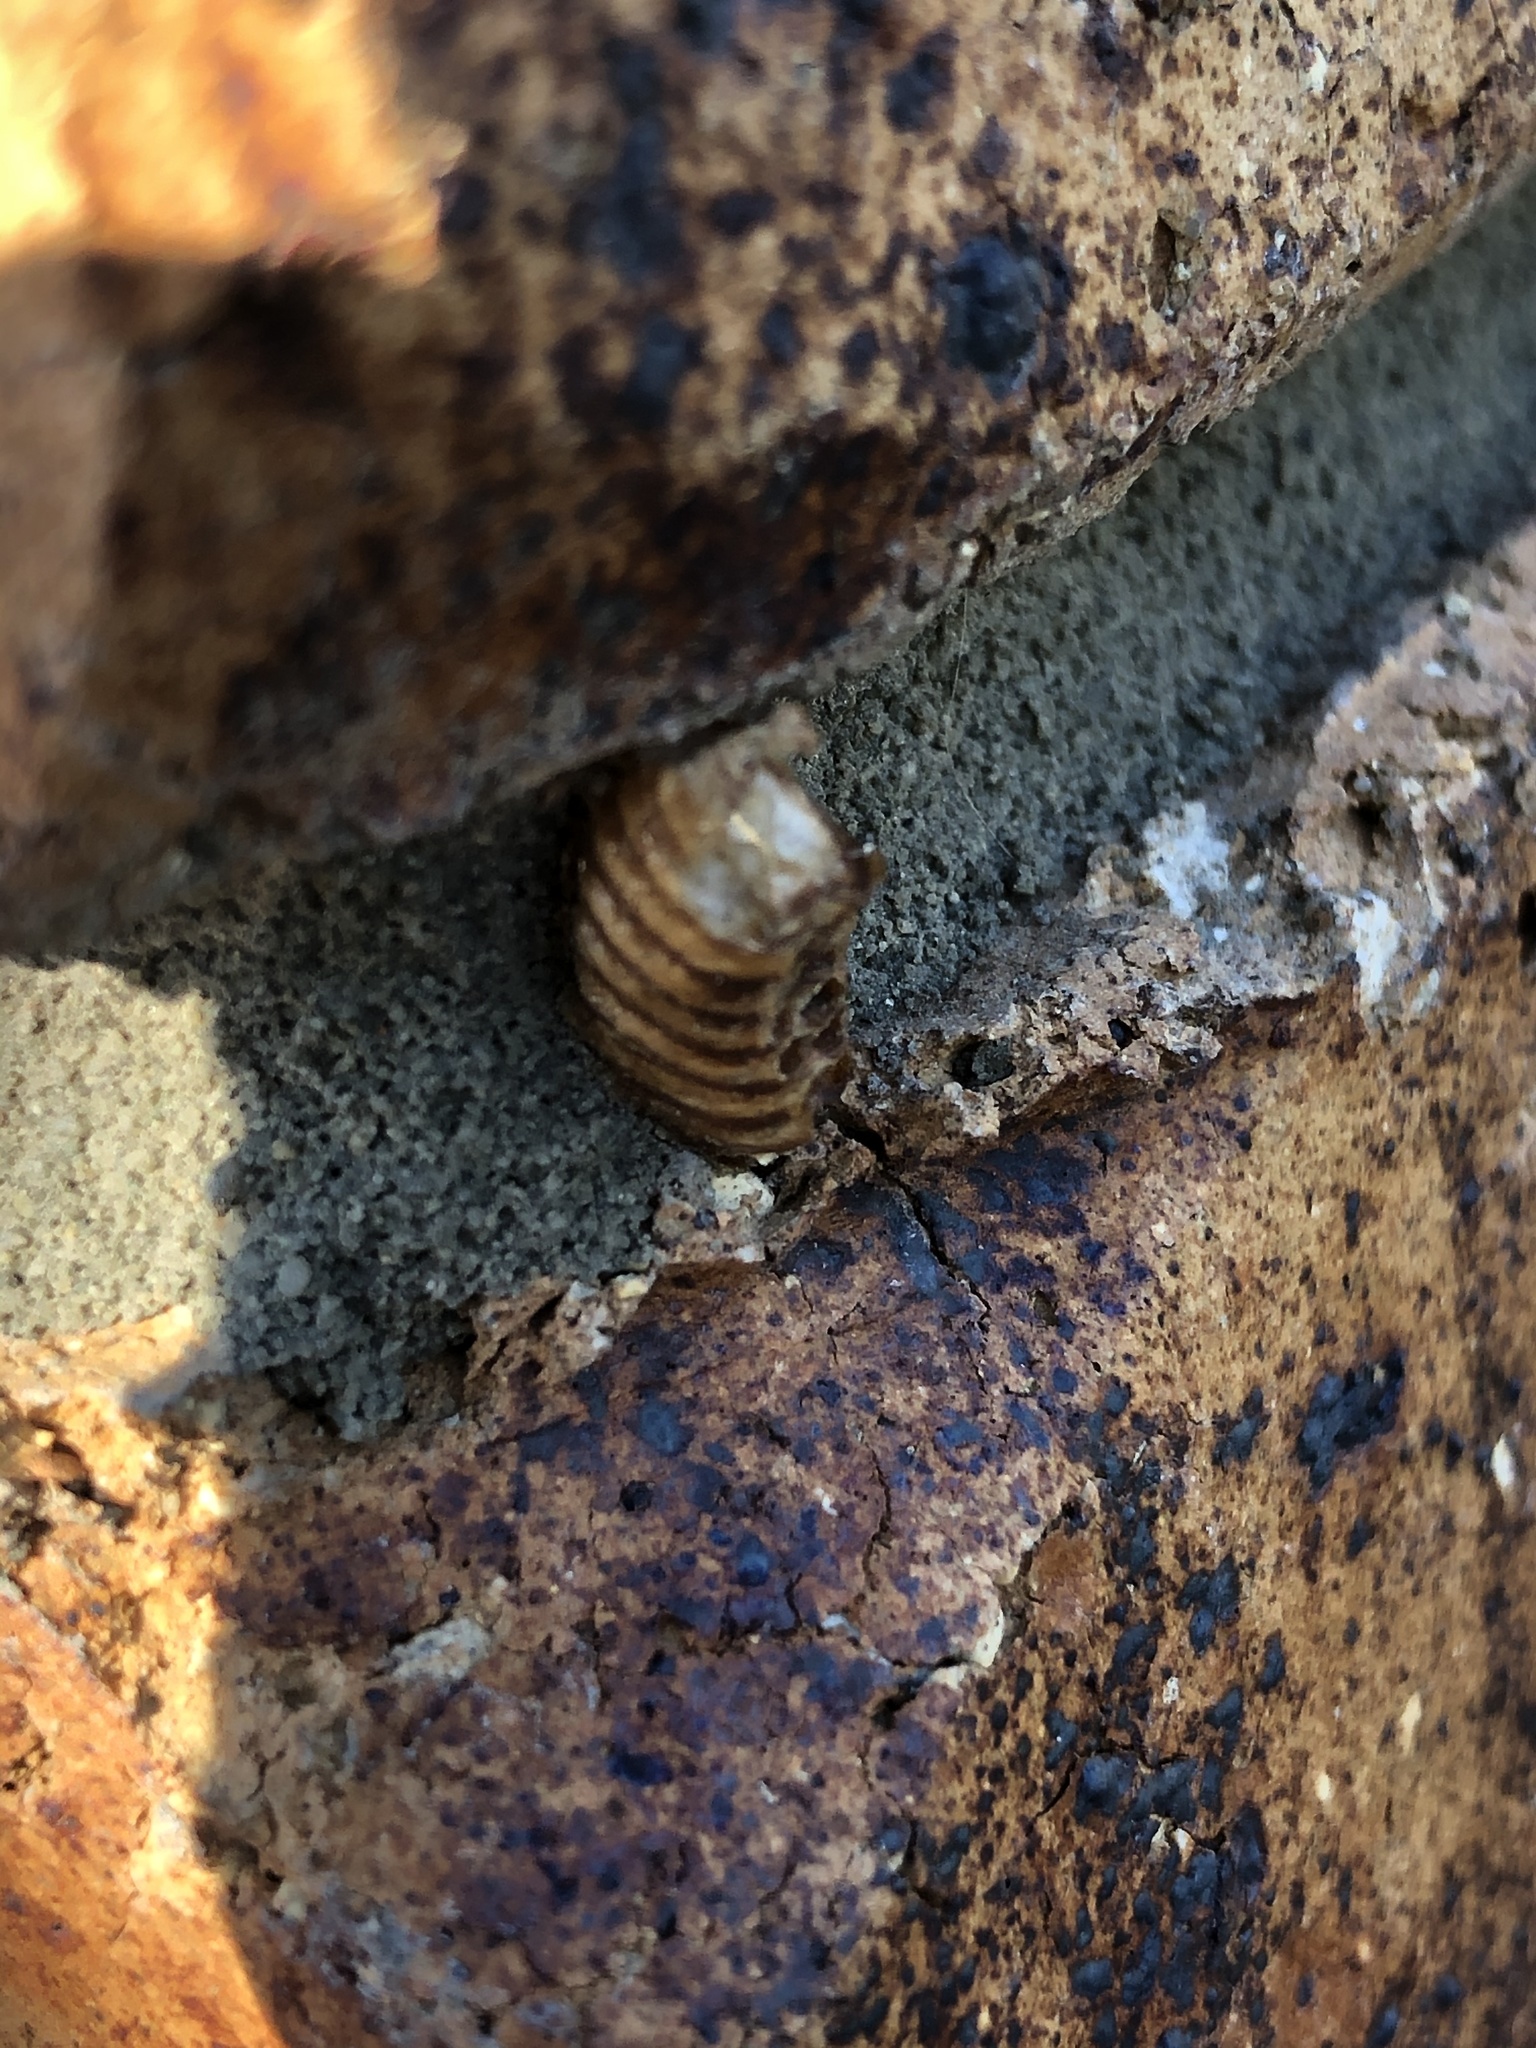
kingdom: Animalia
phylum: Arthropoda
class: Insecta
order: Mantodea
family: Mantidae
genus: Orthodera
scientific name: Orthodera novaezealandiae
